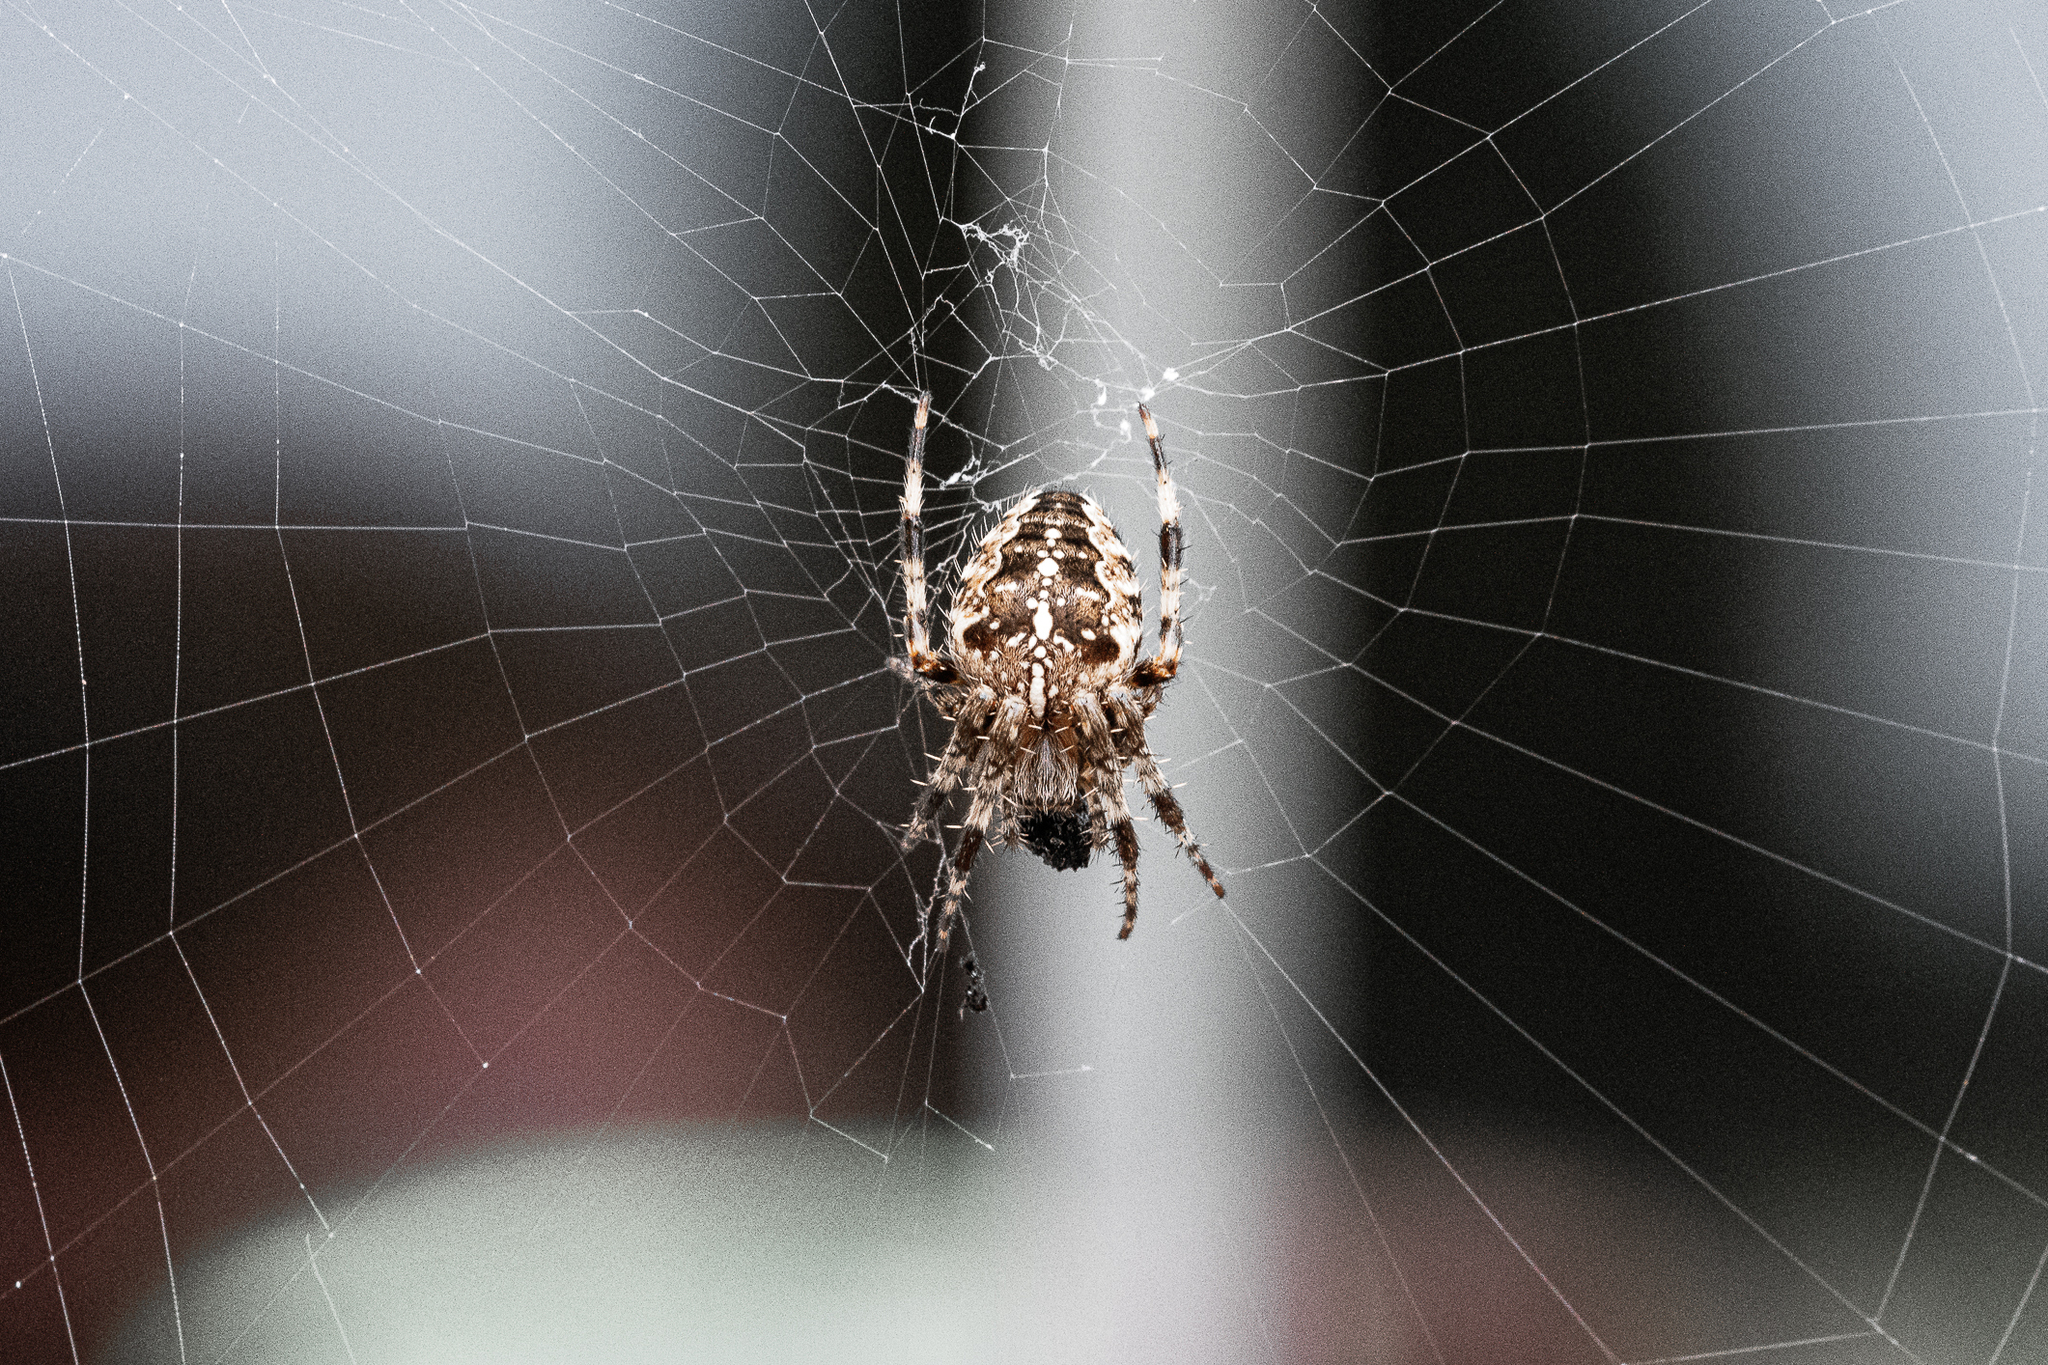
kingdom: Animalia
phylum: Arthropoda
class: Arachnida
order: Araneae
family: Araneidae
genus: Araneus
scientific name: Araneus diadematus
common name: Cross orbweaver
